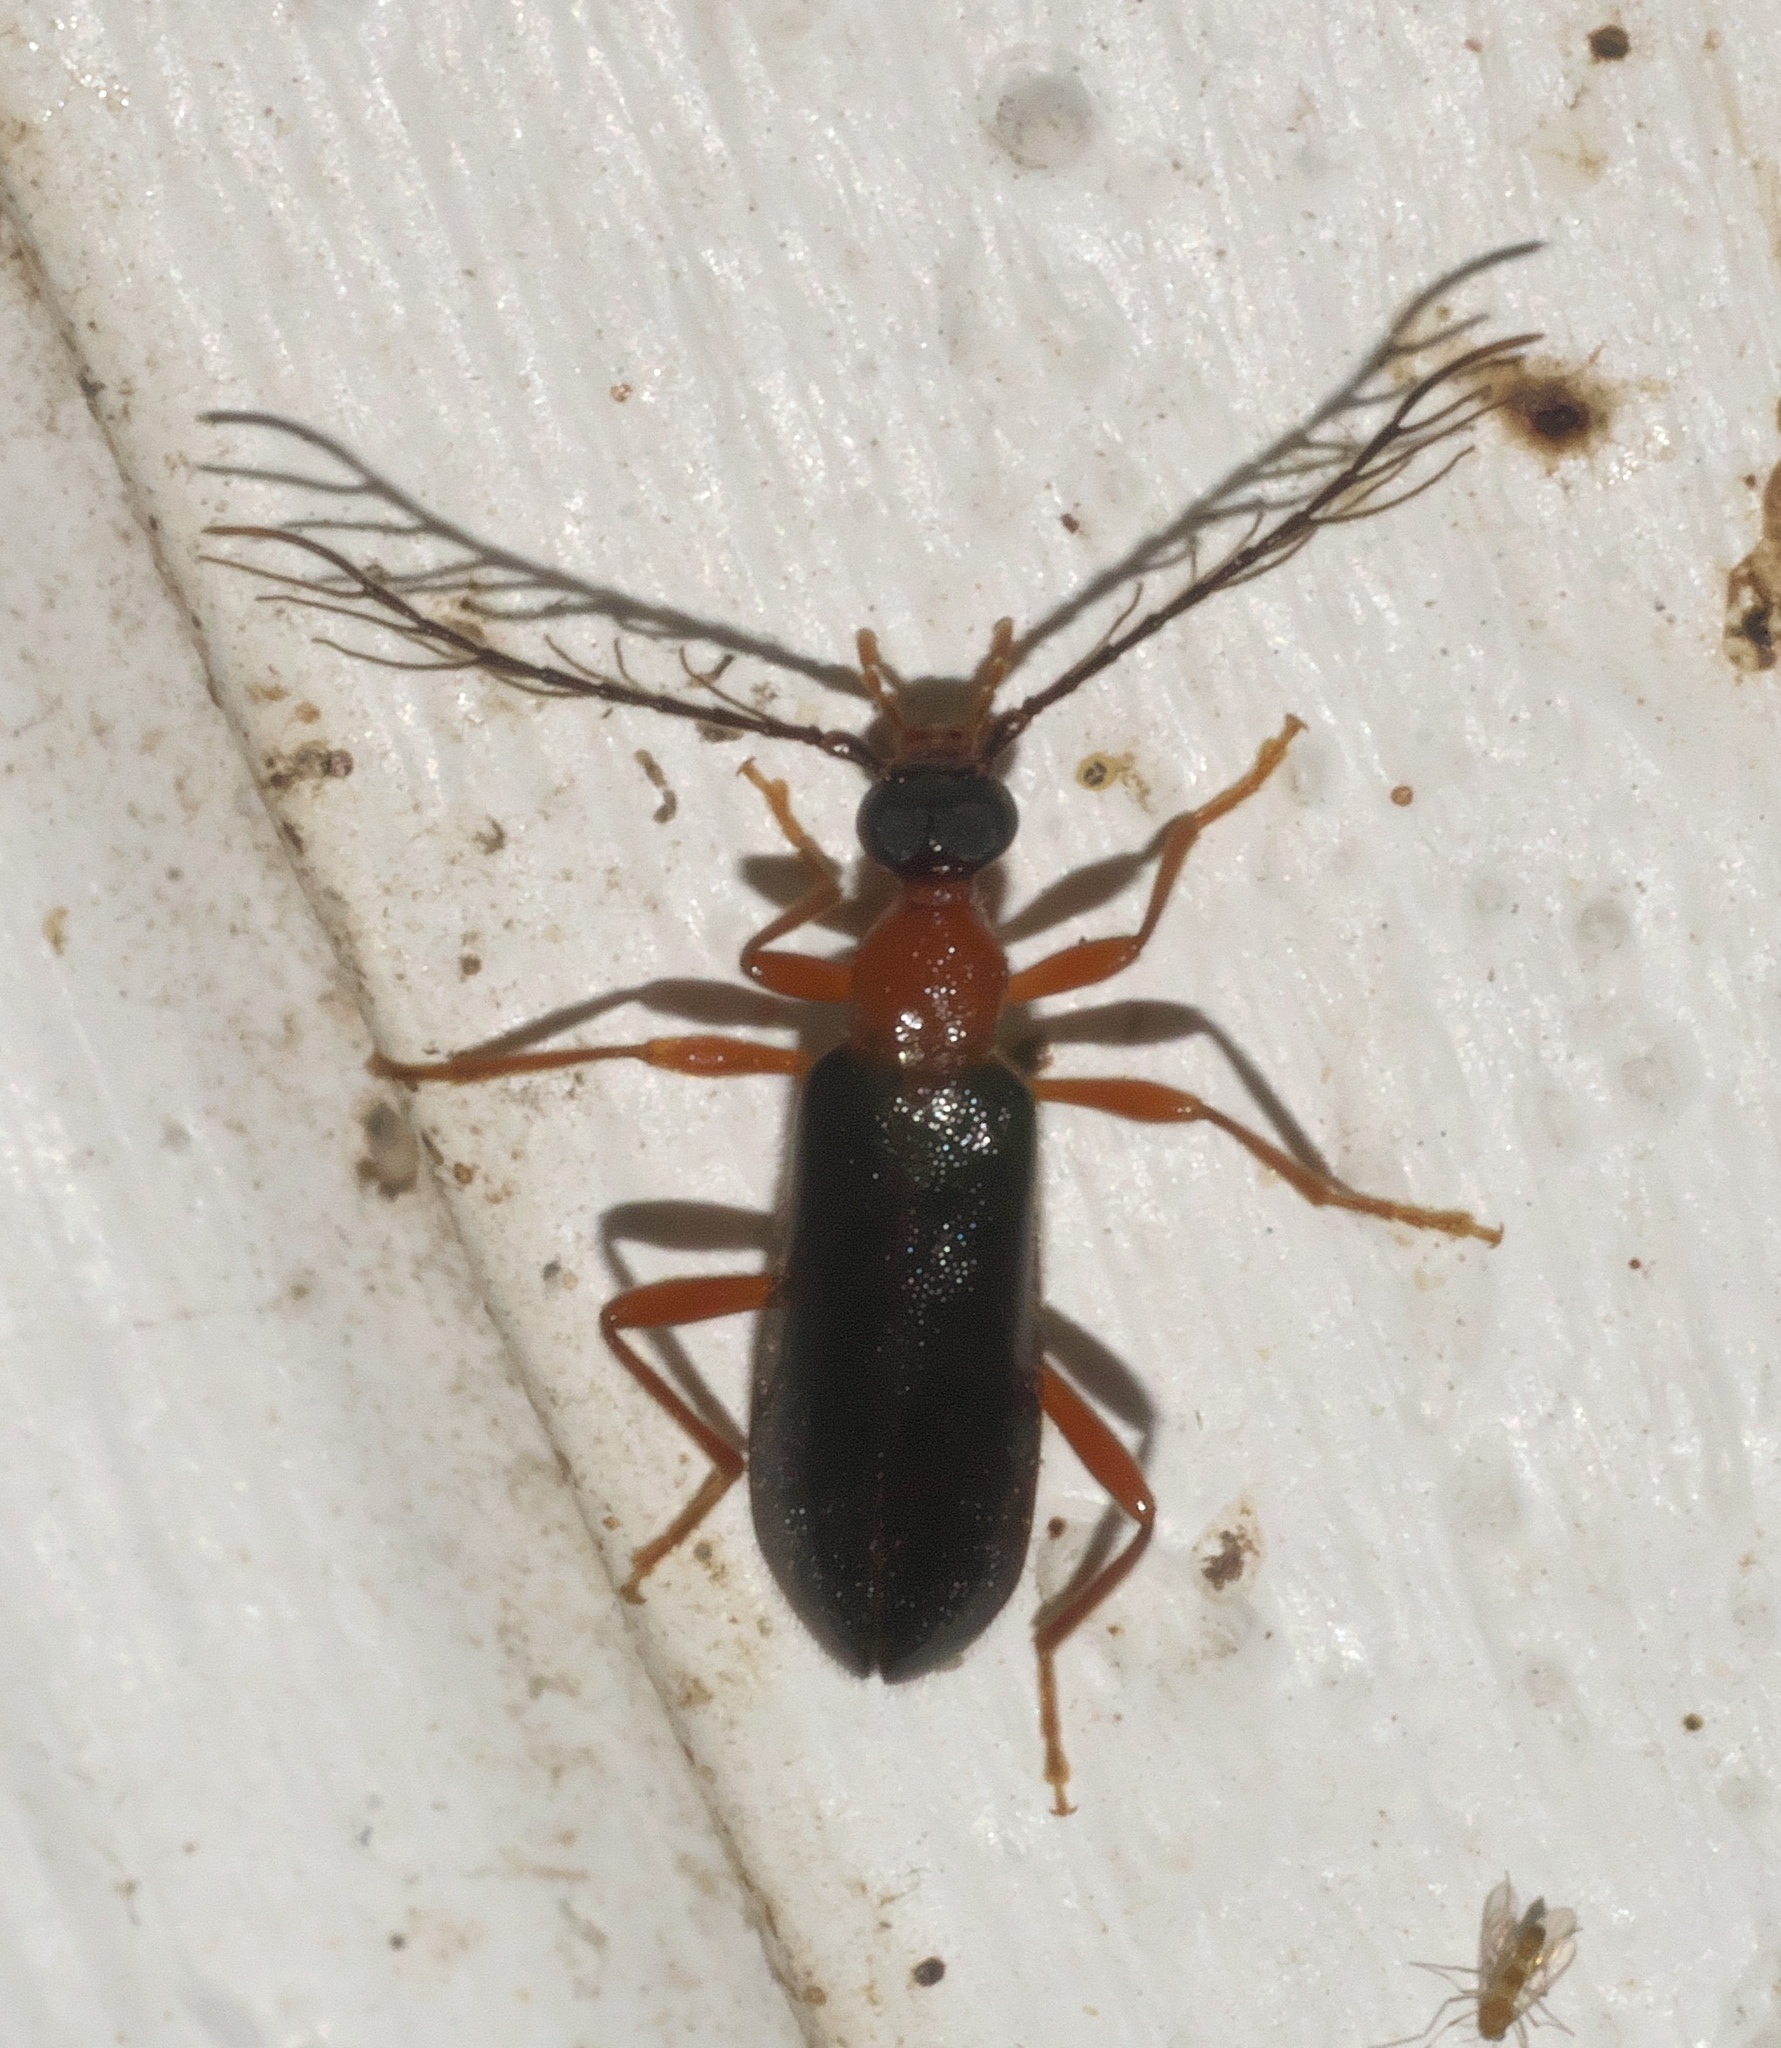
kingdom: Animalia
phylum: Arthropoda
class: Insecta
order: Coleoptera
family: Pyrochroidae
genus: Dendroides
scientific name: Dendroides canadensis
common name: Canada fire-colored beetle
